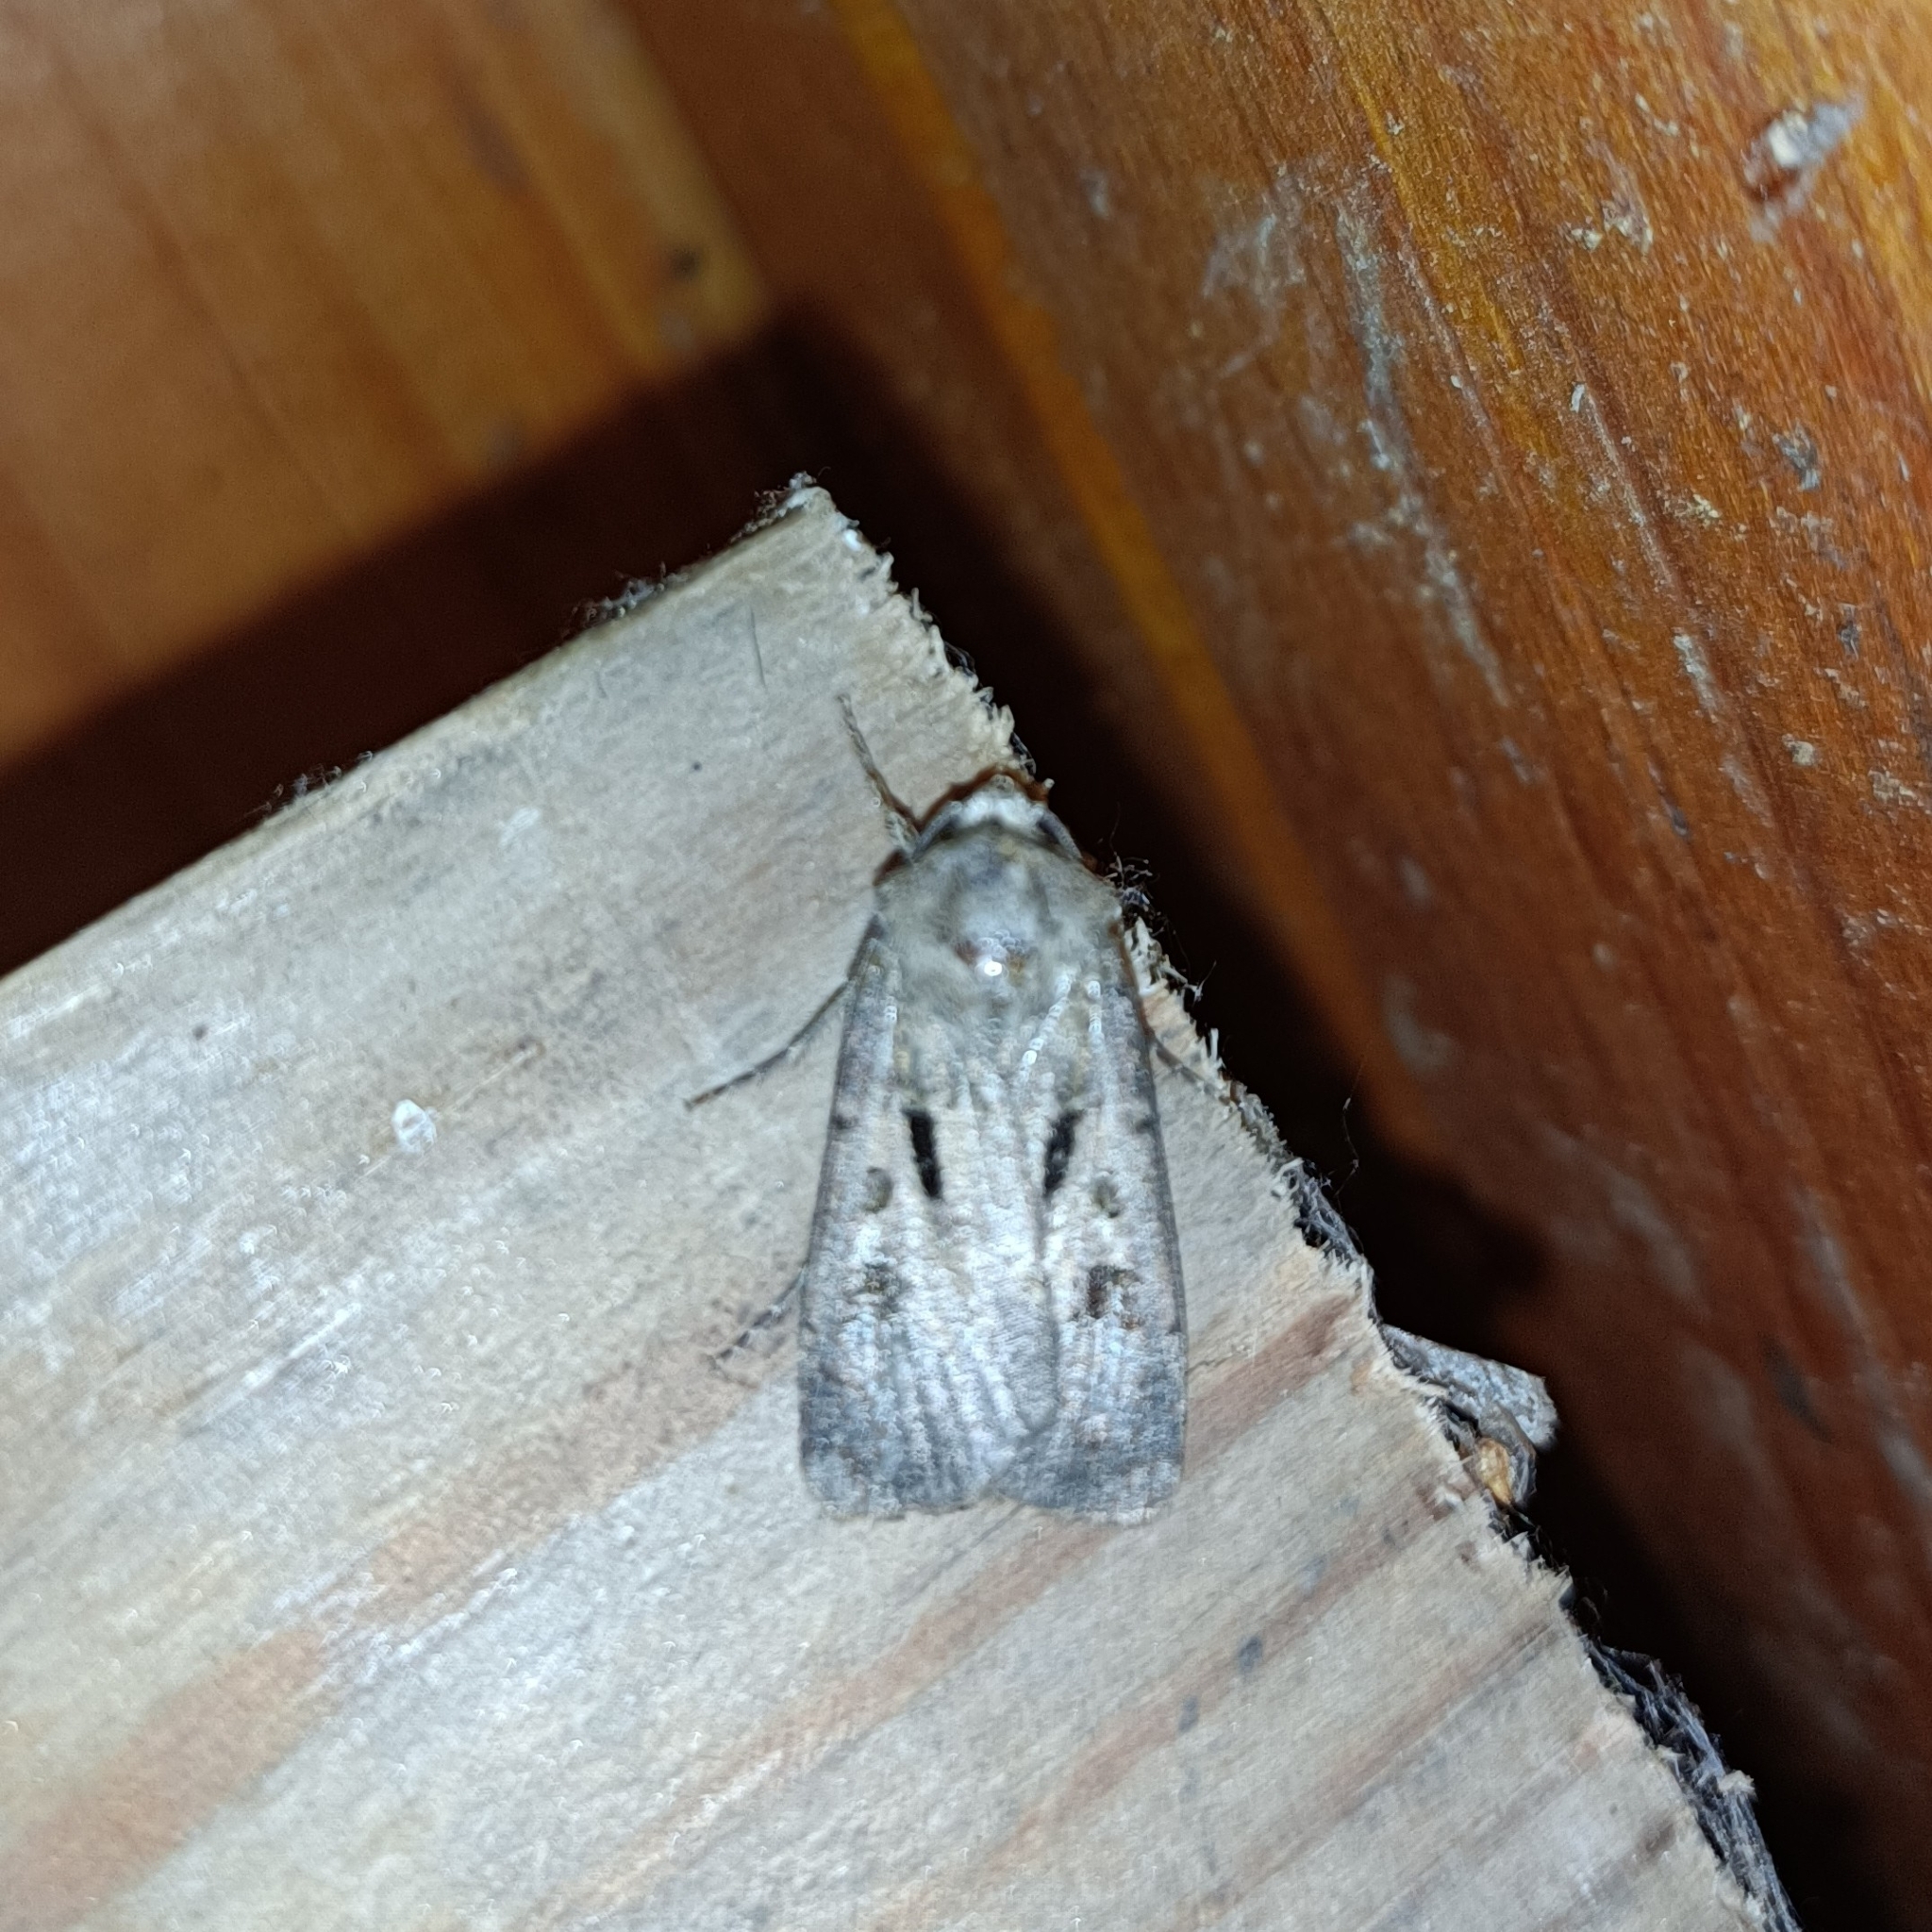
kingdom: Animalia
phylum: Arthropoda
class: Insecta
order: Lepidoptera
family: Noctuidae
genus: Agrotis
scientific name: Agrotis exclamationis
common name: Heart and dart
